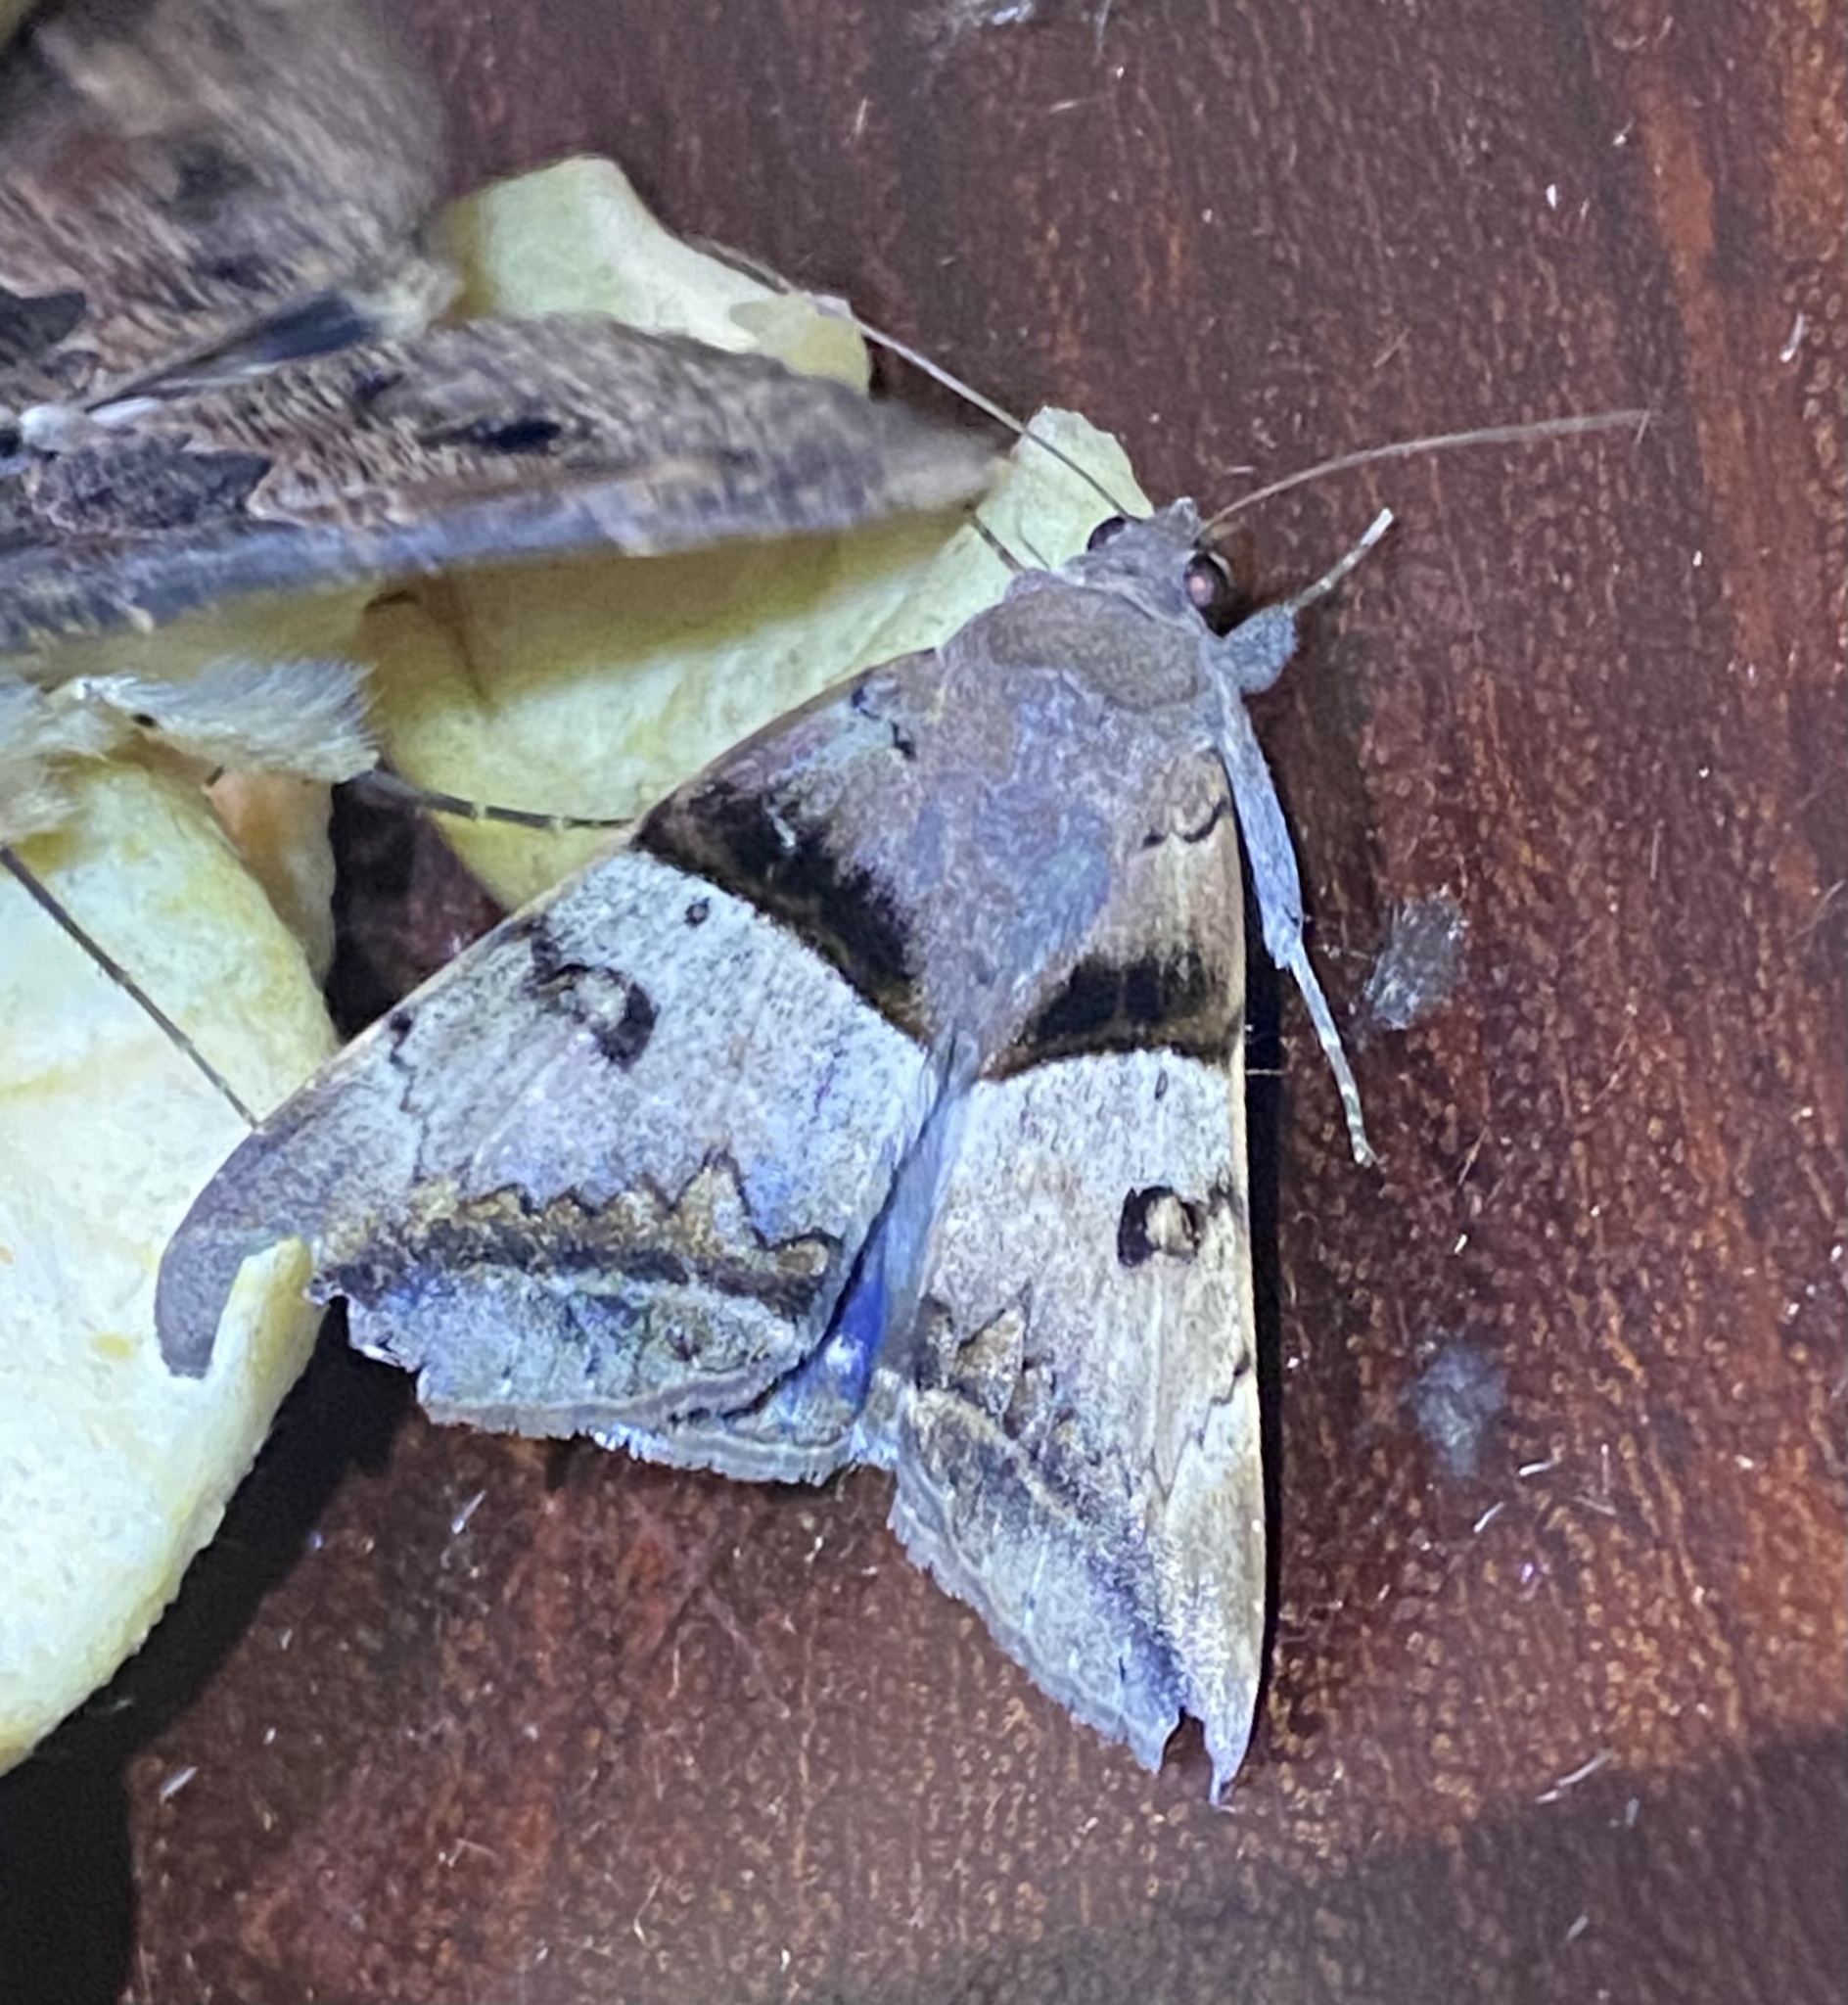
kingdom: Animalia
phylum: Arthropoda
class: Insecta
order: Lepidoptera
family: Erebidae
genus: Achaea
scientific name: Achaea lienardi
